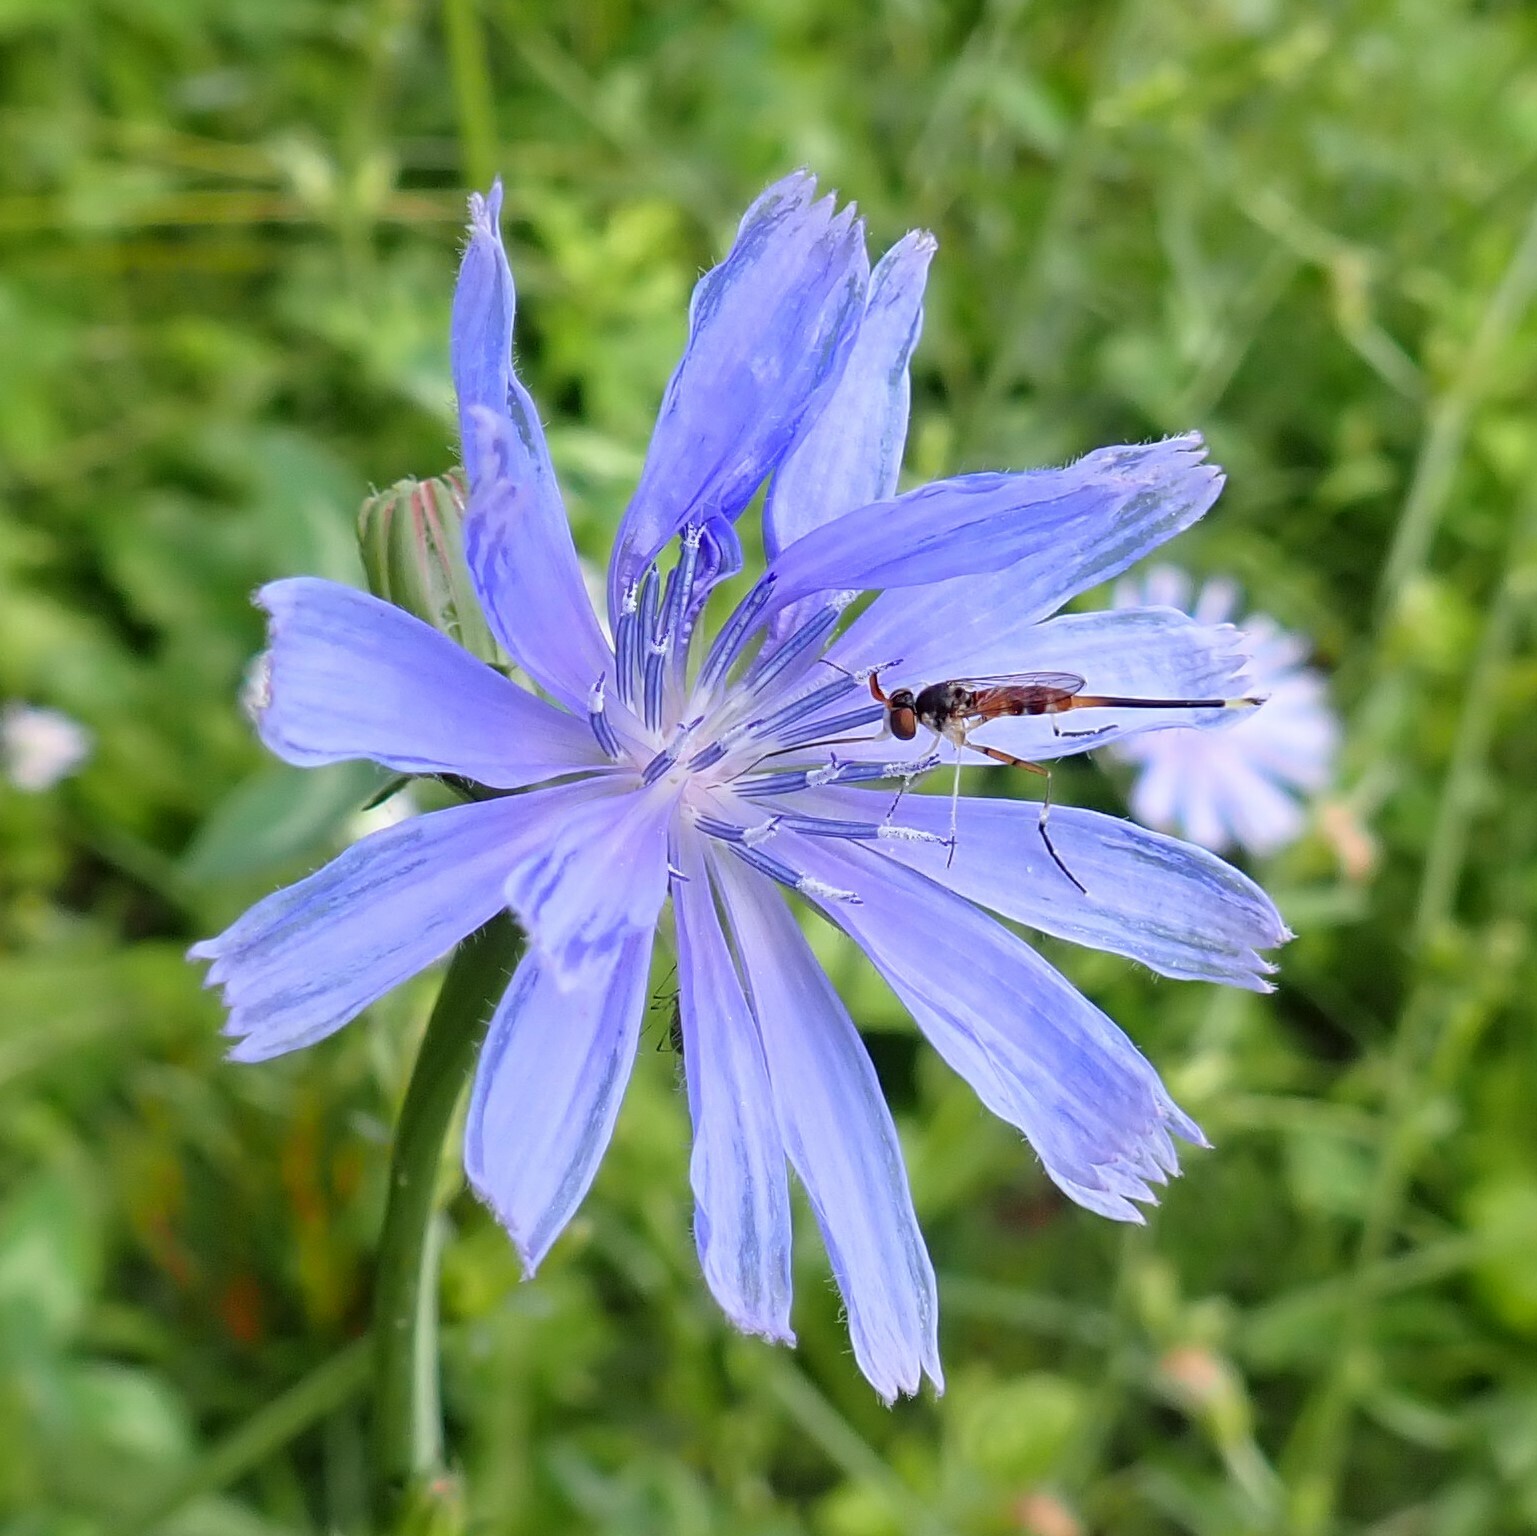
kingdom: Plantae
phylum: Tracheophyta
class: Magnoliopsida
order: Asterales
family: Asteraceae
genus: Cichorium
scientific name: Cichorium intybus
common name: Chicory
